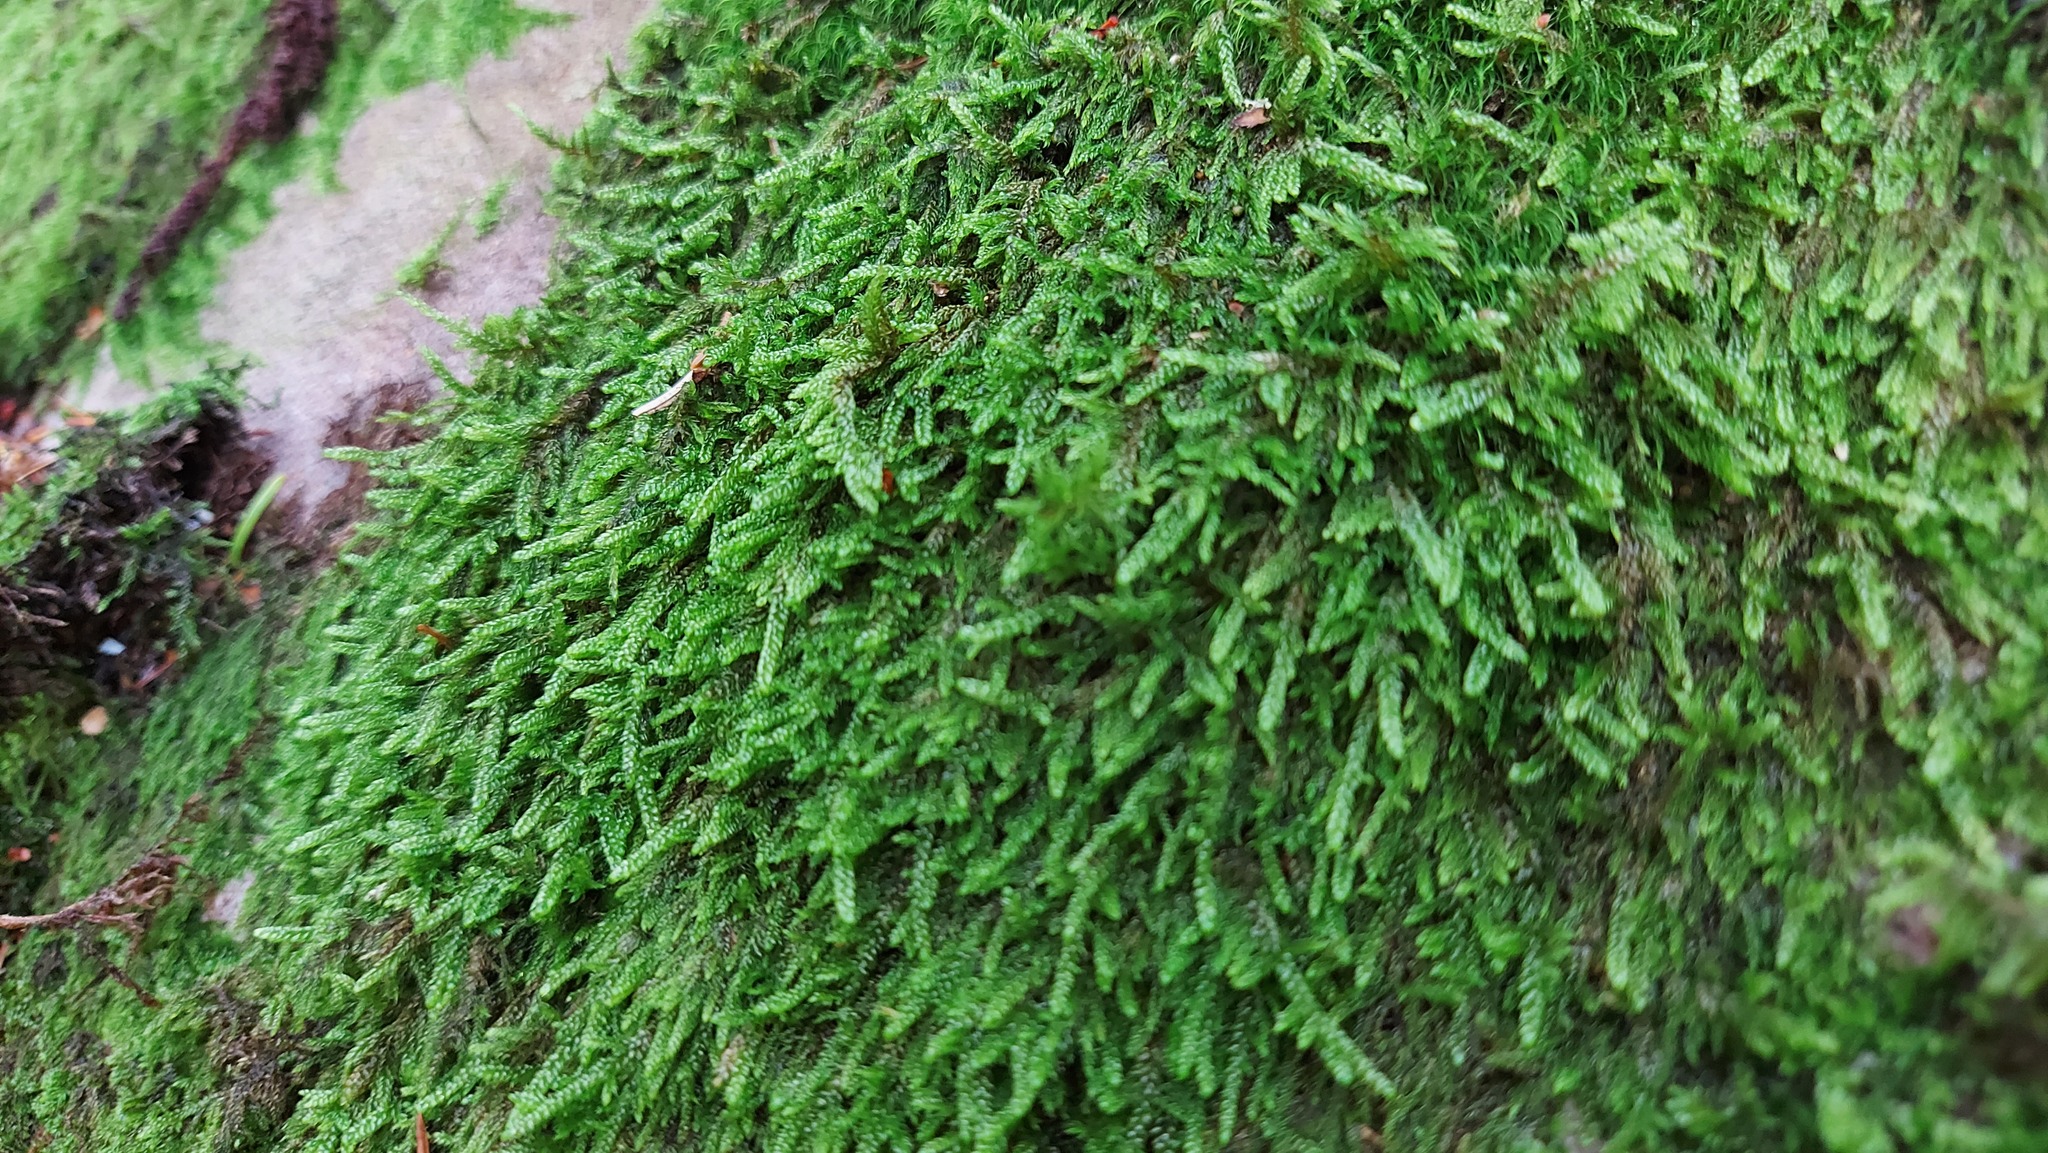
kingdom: Plantae
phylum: Bryophyta
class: Bryopsida
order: Hypnales
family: Hypnaceae
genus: Hypnum
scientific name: Hypnum cupressiforme
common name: Cypress-leaved plait-moss
